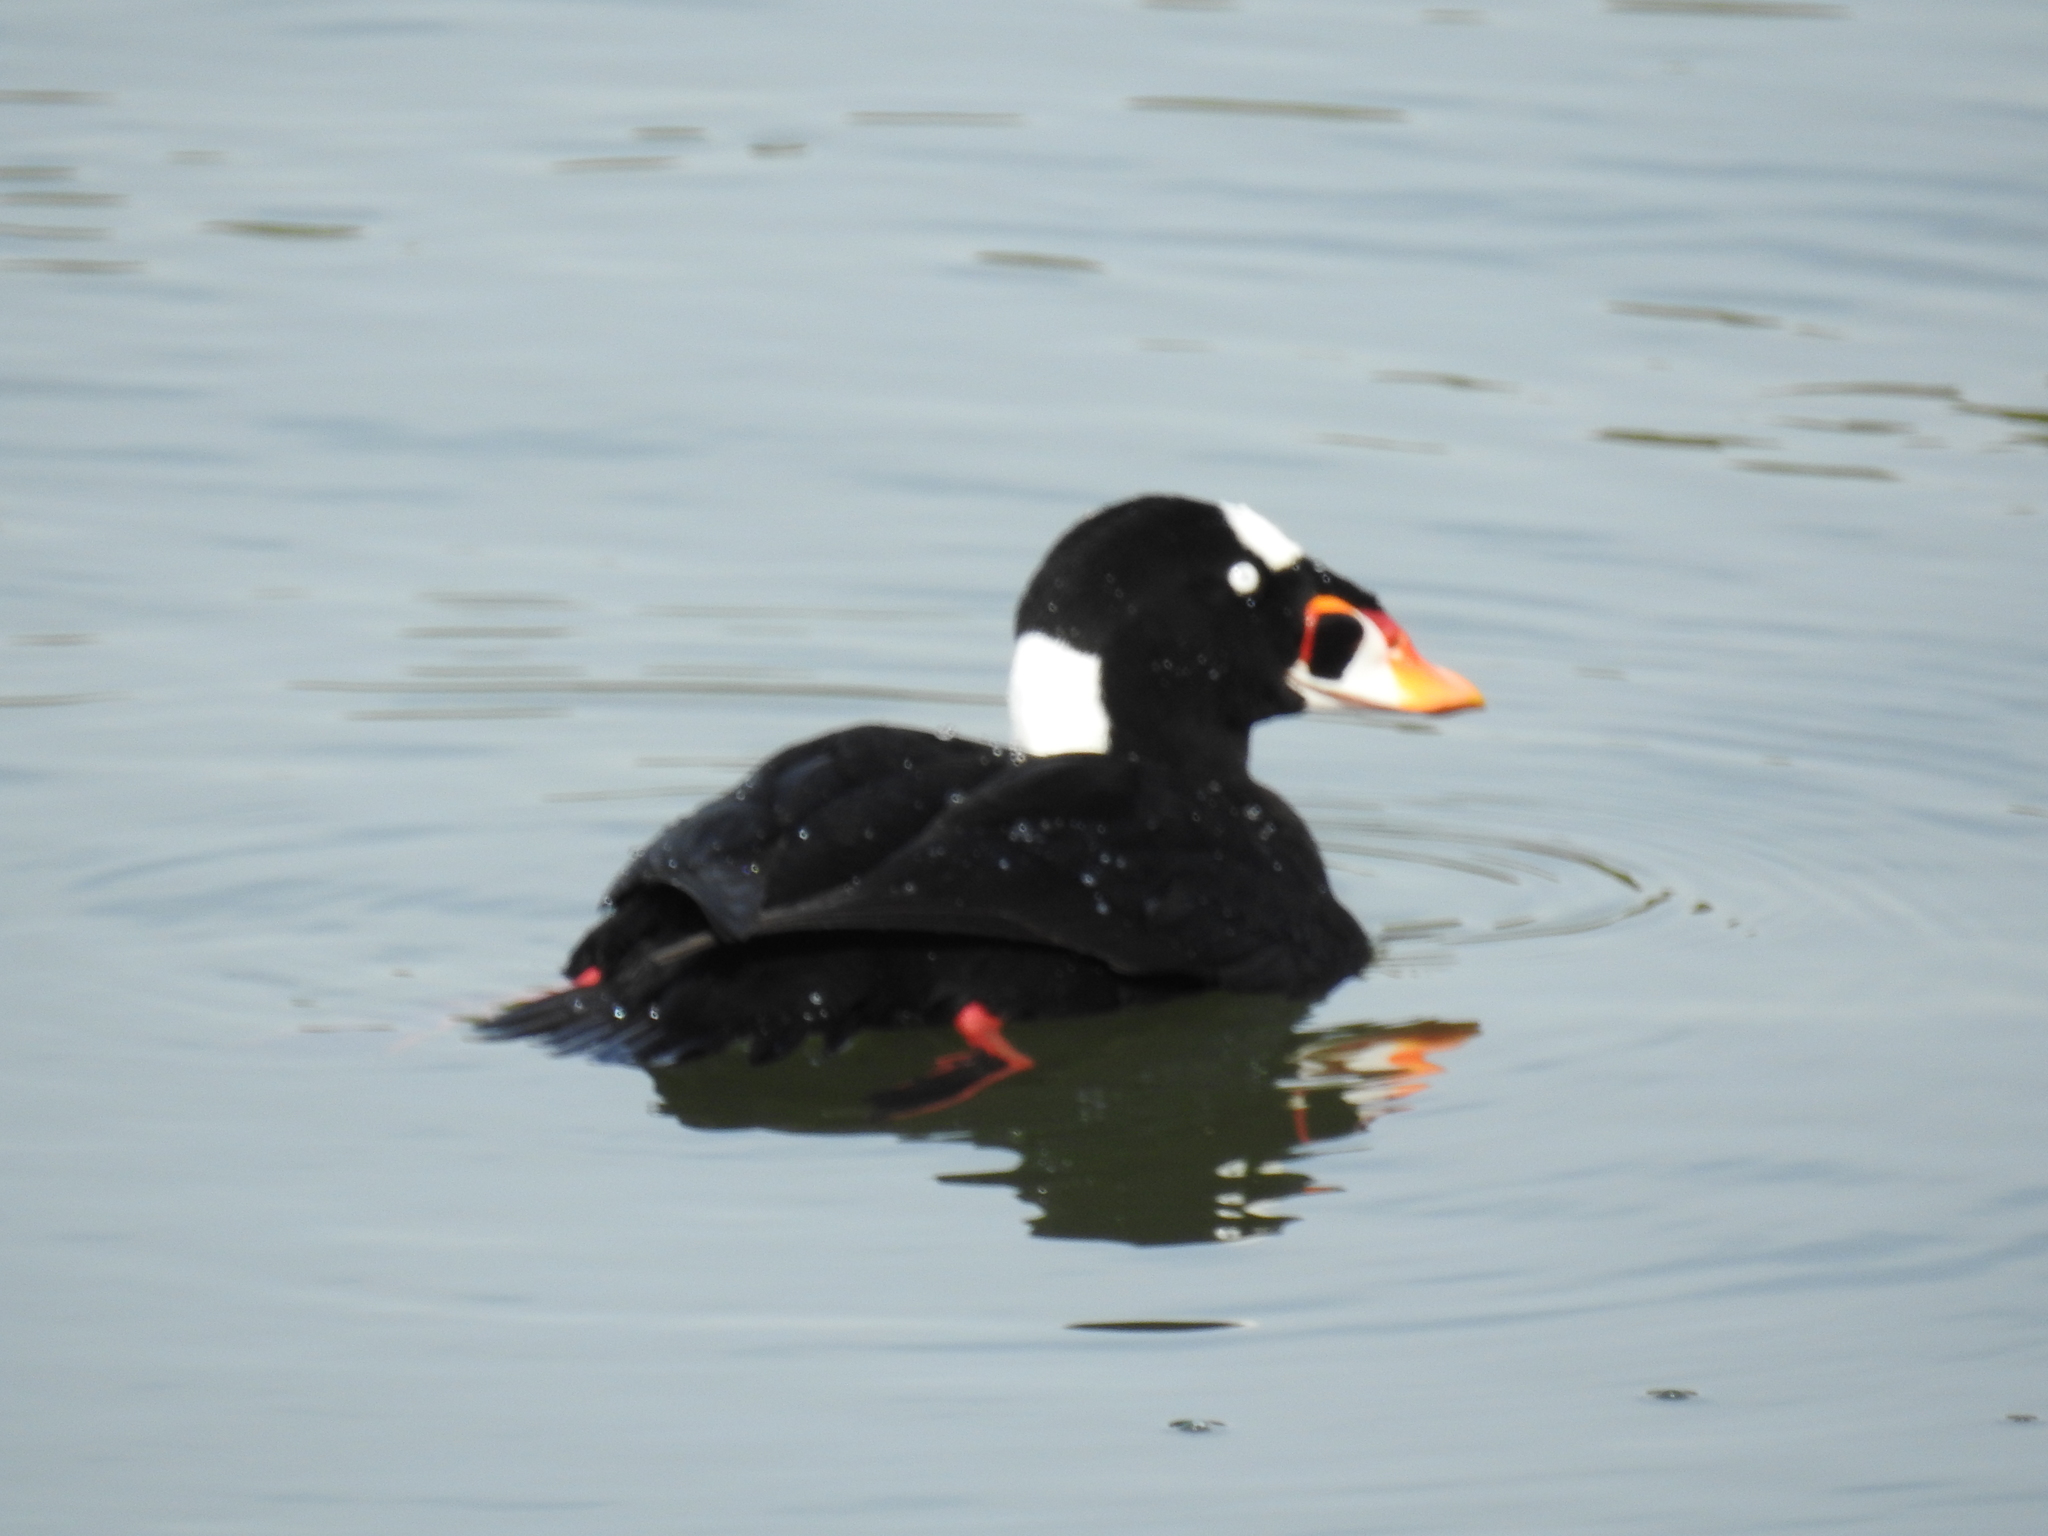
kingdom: Animalia
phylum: Chordata
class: Aves
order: Anseriformes
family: Anatidae
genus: Melanitta
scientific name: Melanitta perspicillata
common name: Surf scoter
